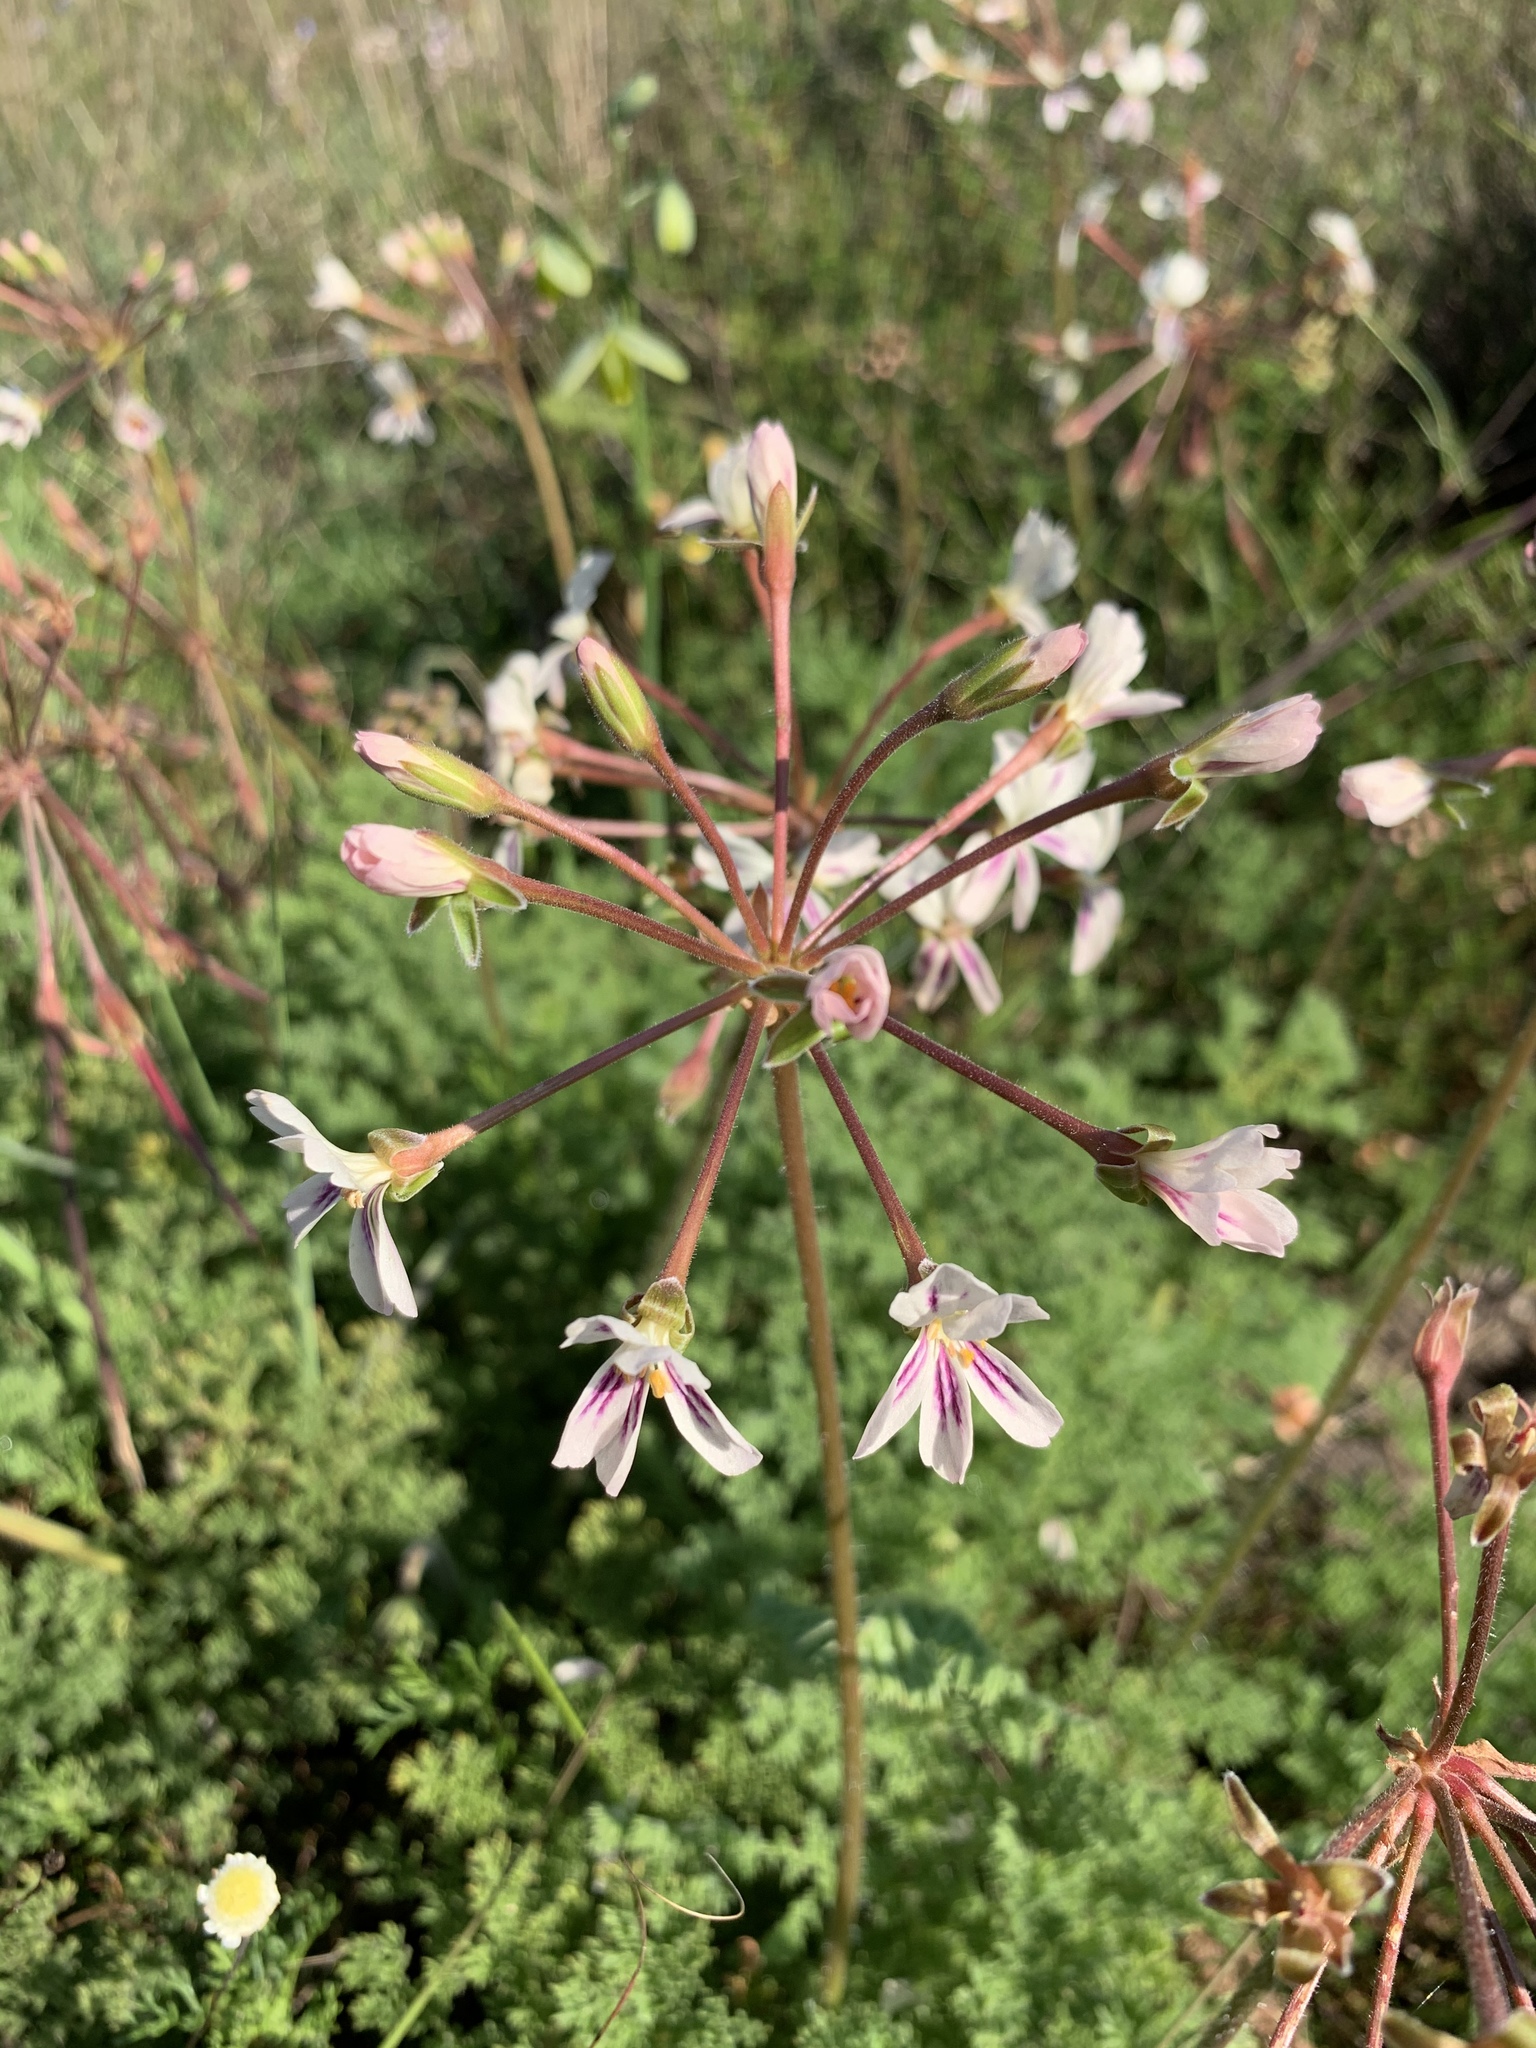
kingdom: Plantae
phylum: Tracheophyta
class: Magnoliopsida
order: Geraniales
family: Geraniaceae
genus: Pelargonium
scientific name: Pelargonium triste
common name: Night-scent pelargonium
